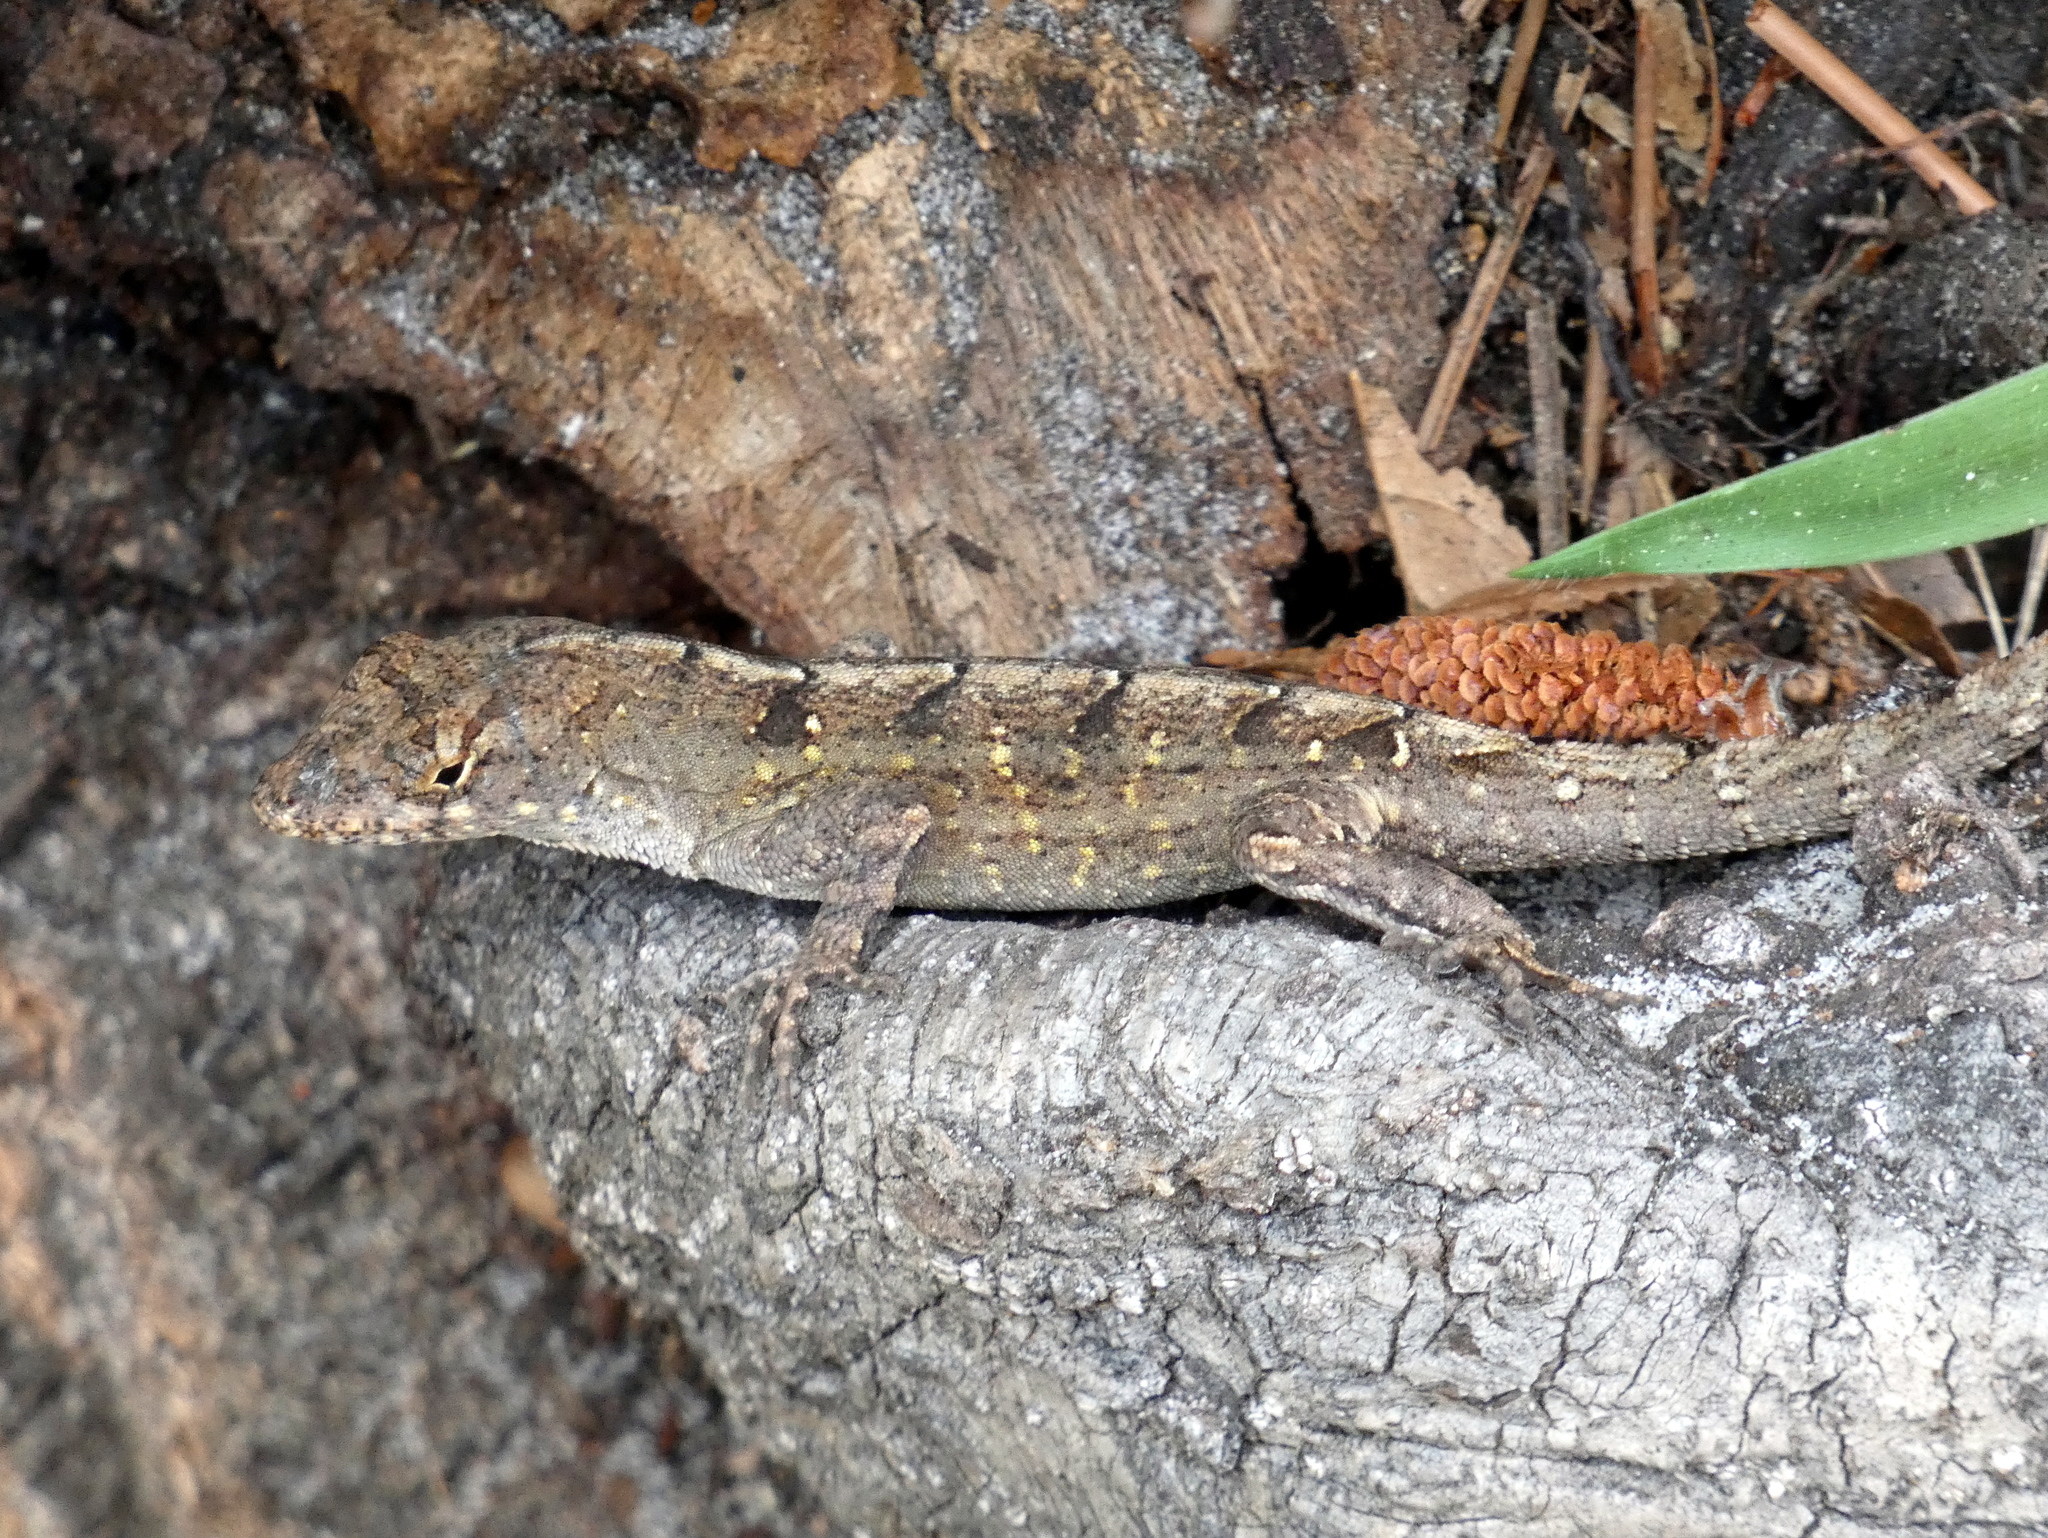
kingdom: Animalia
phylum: Chordata
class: Squamata
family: Dactyloidae
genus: Anolis
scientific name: Anolis sagrei
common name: Brown anole
